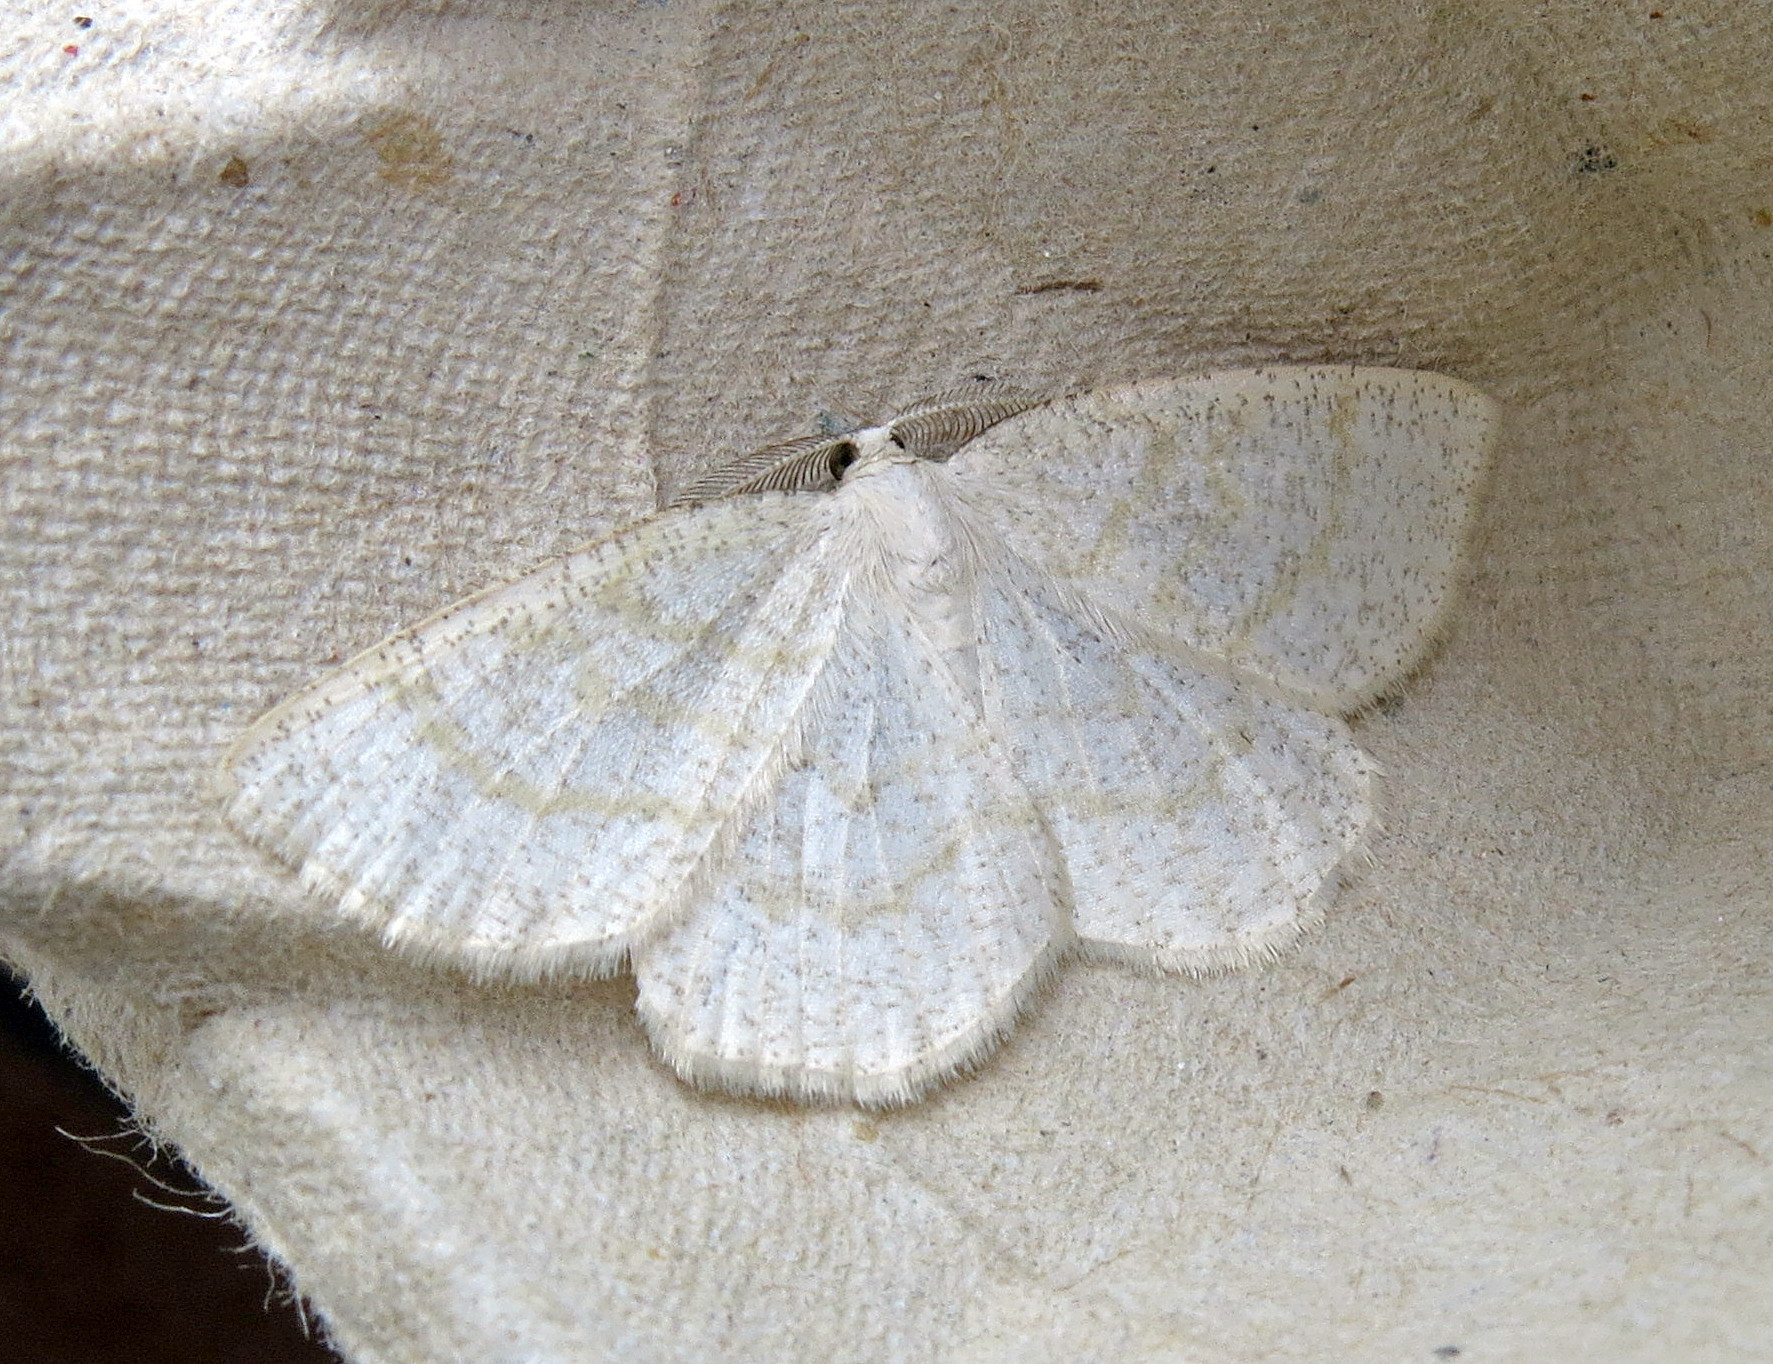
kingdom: Animalia
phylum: Arthropoda
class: Insecta
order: Lepidoptera
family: Geometridae
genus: Cabera
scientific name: Cabera exanthemata
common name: Common wave
